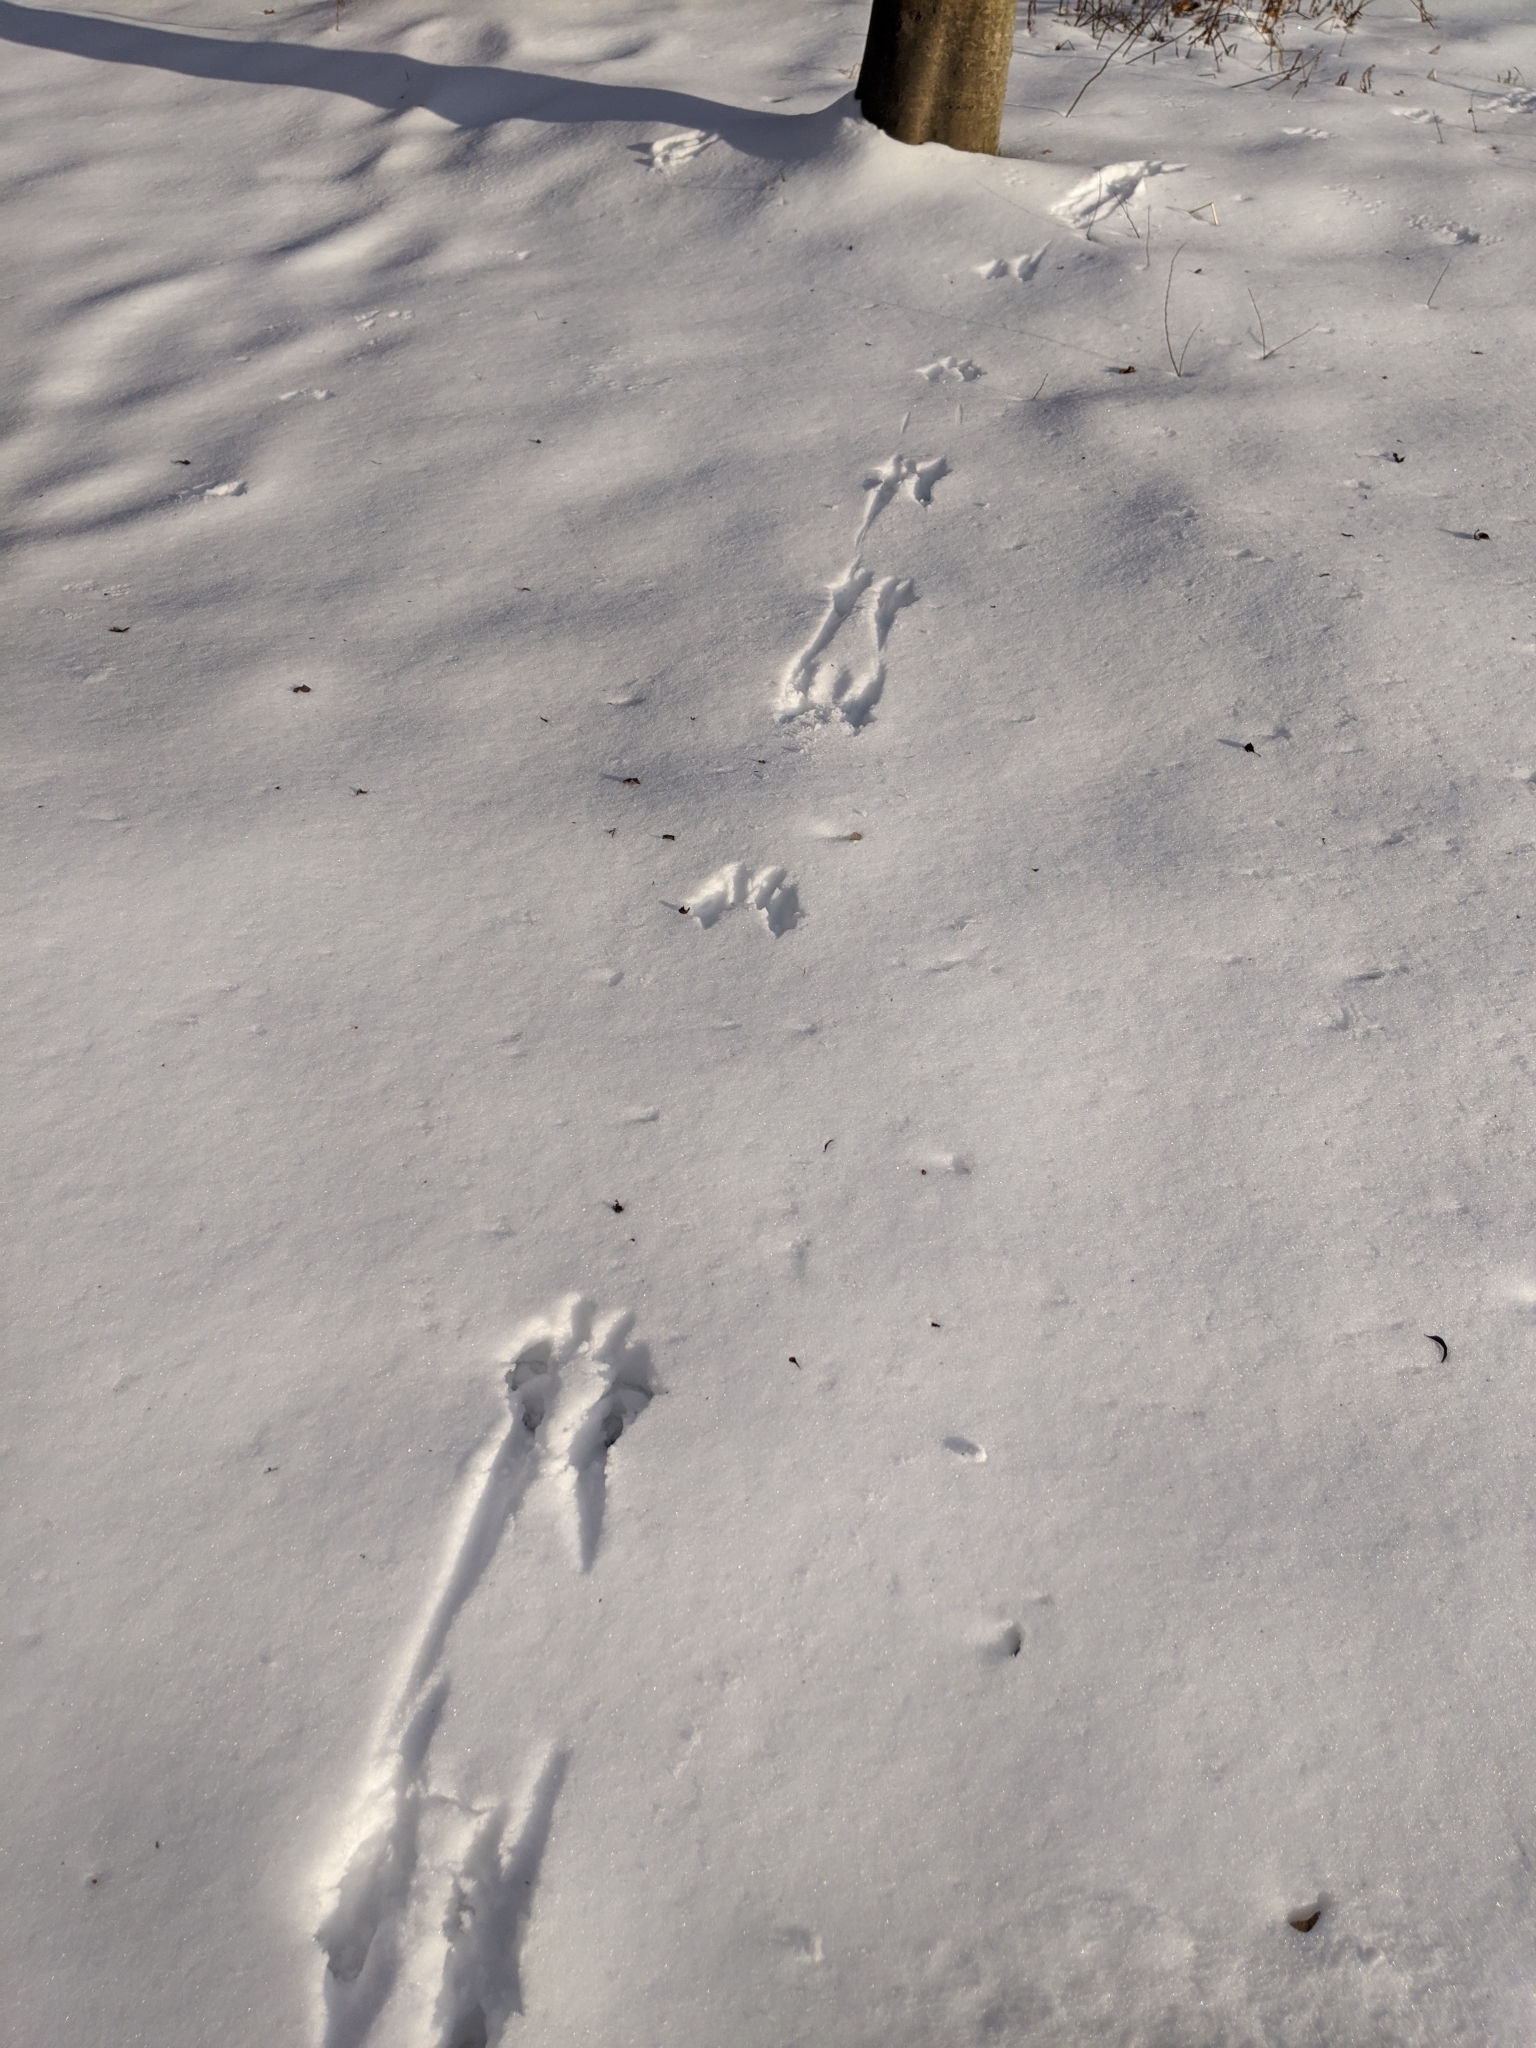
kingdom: Animalia
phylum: Chordata
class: Mammalia
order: Rodentia
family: Sciuridae
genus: Sciurus
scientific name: Sciurus carolinensis
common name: Eastern gray squirrel
